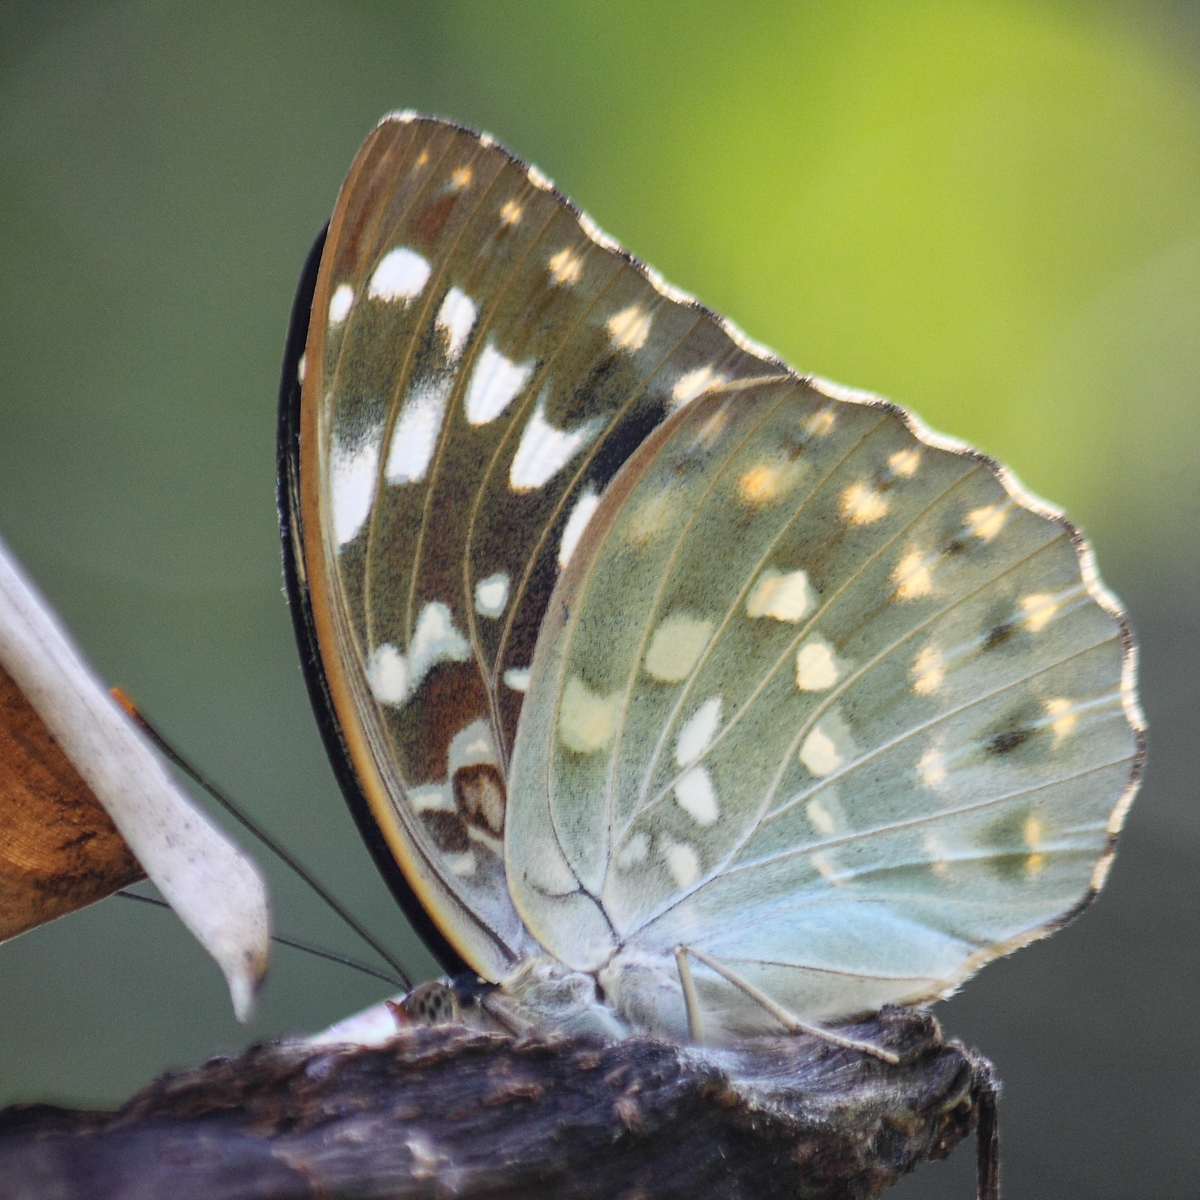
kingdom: Animalia
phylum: Arthropoda
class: Insecta
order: Lepidoptera
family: Nymphalidae
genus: Lexias
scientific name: Lexias pardalis
